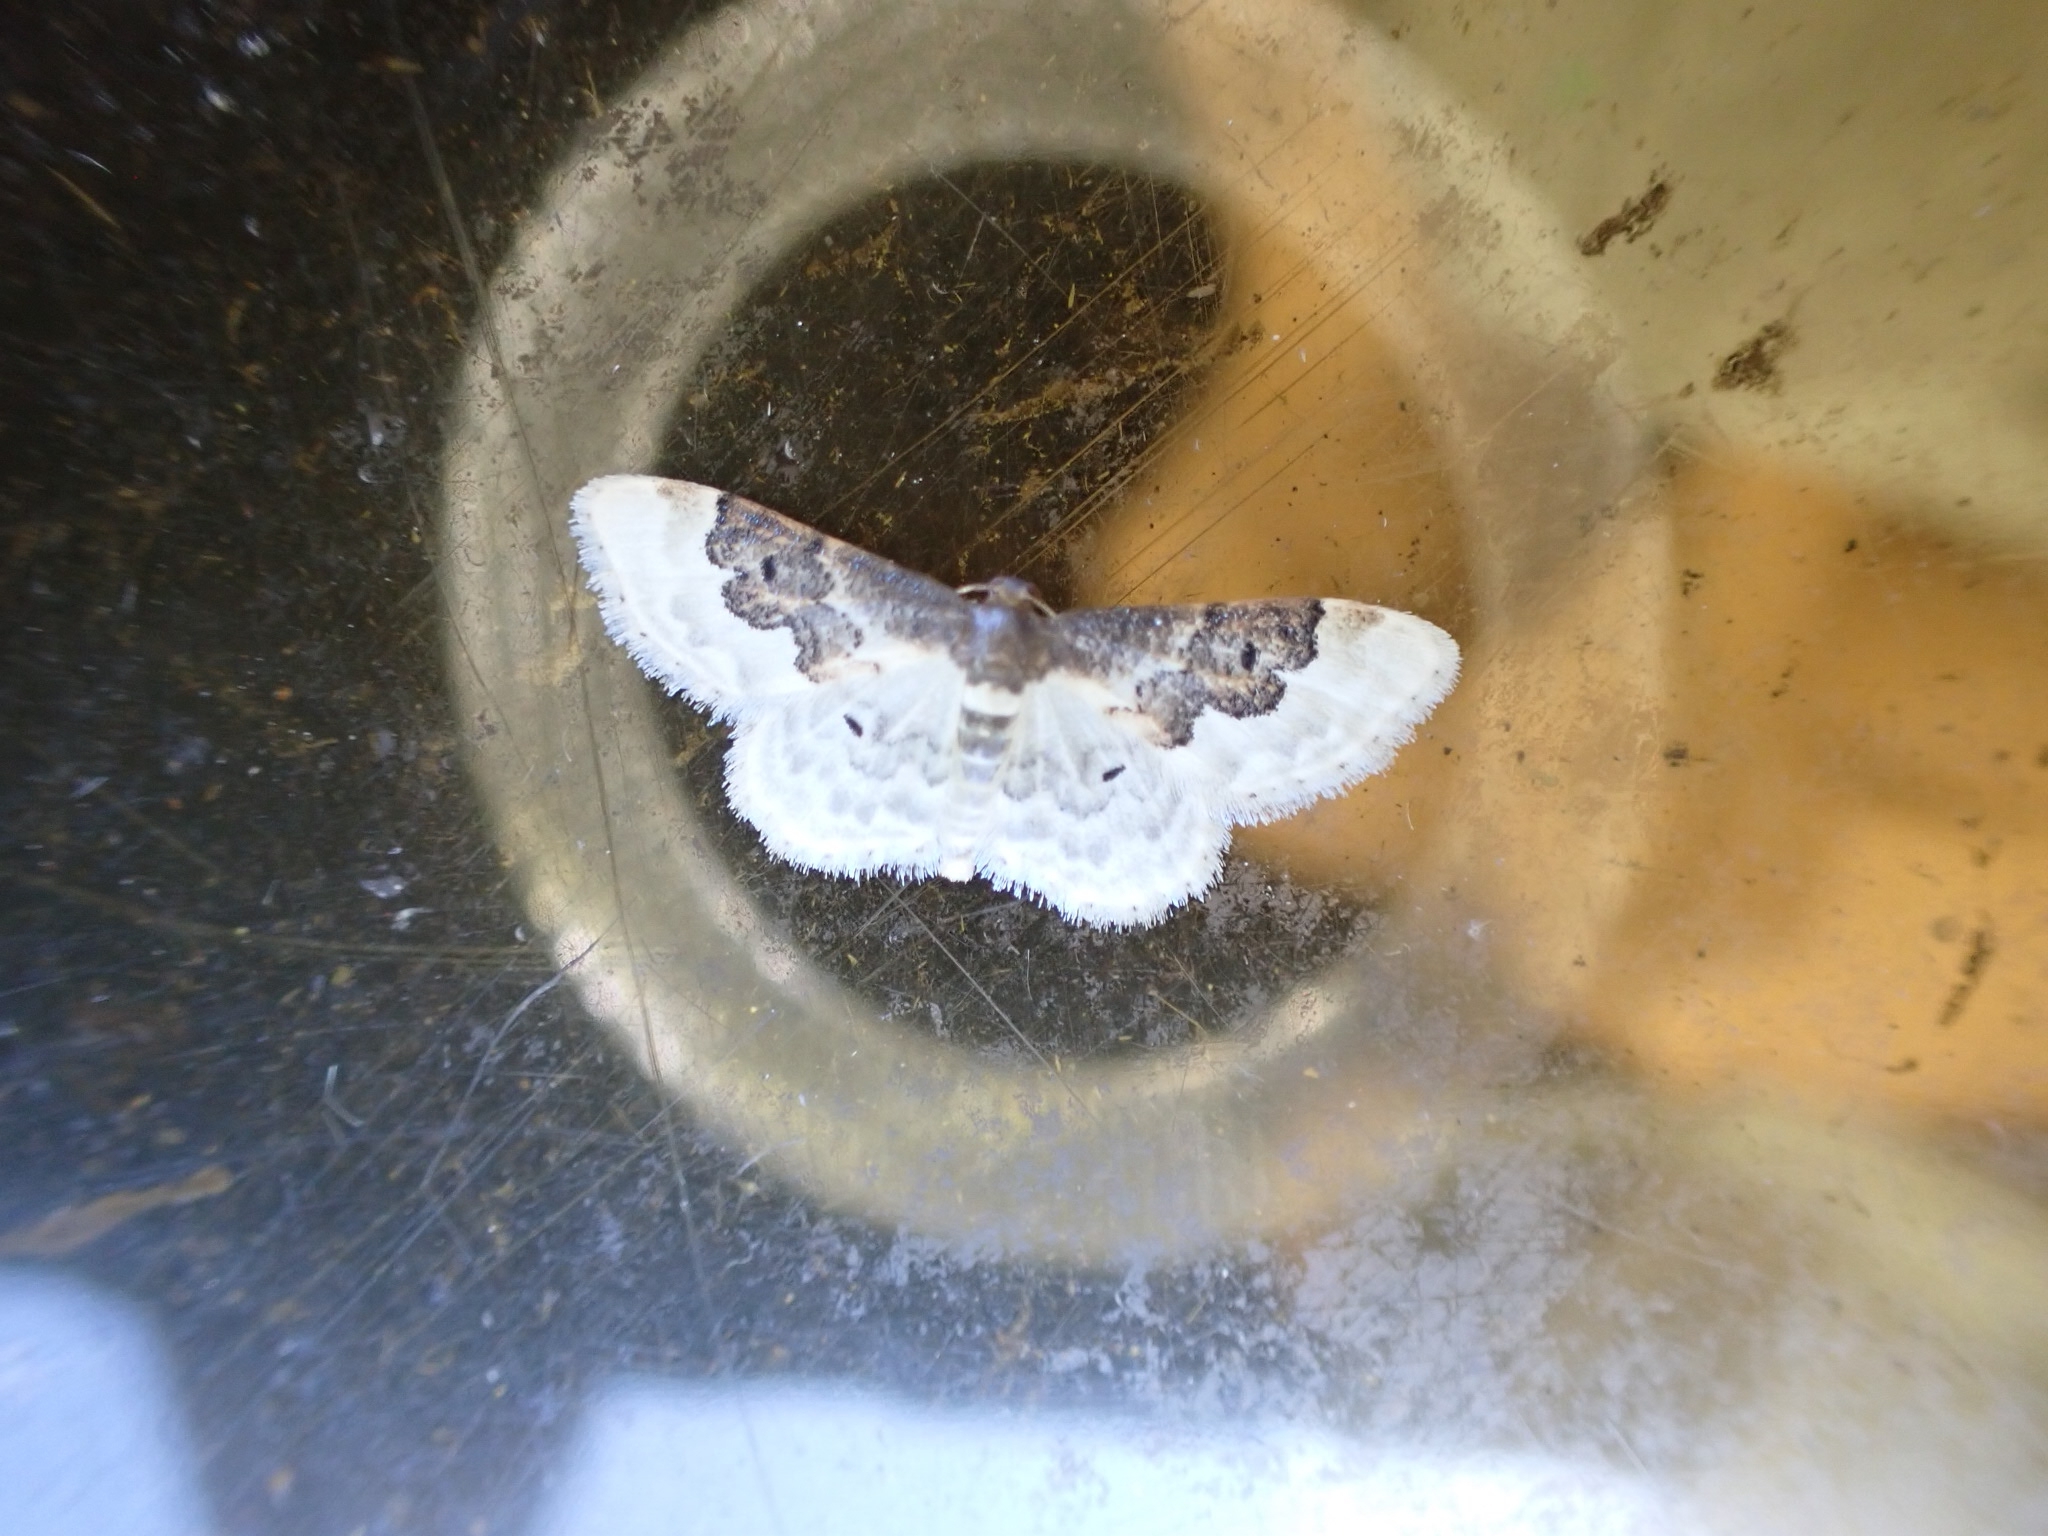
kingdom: Animalia
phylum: Arthropoda
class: Insecta
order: Lepidoptera
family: Geometridae
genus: Idaea
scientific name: Idaea rusticata
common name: Least carpet
